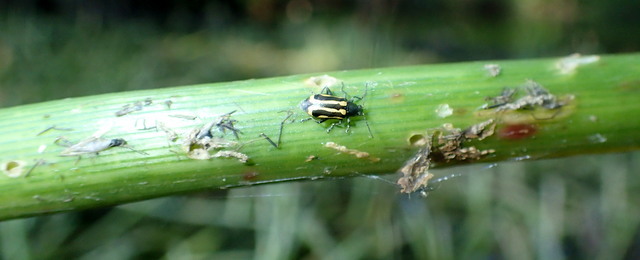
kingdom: Animalia
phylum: Arthropoda
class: Insecta
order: Coleoptera
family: Chrysomelidae
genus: Agasicles
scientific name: Agasicles hygrophila
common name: Alligatorweed flea beetle
